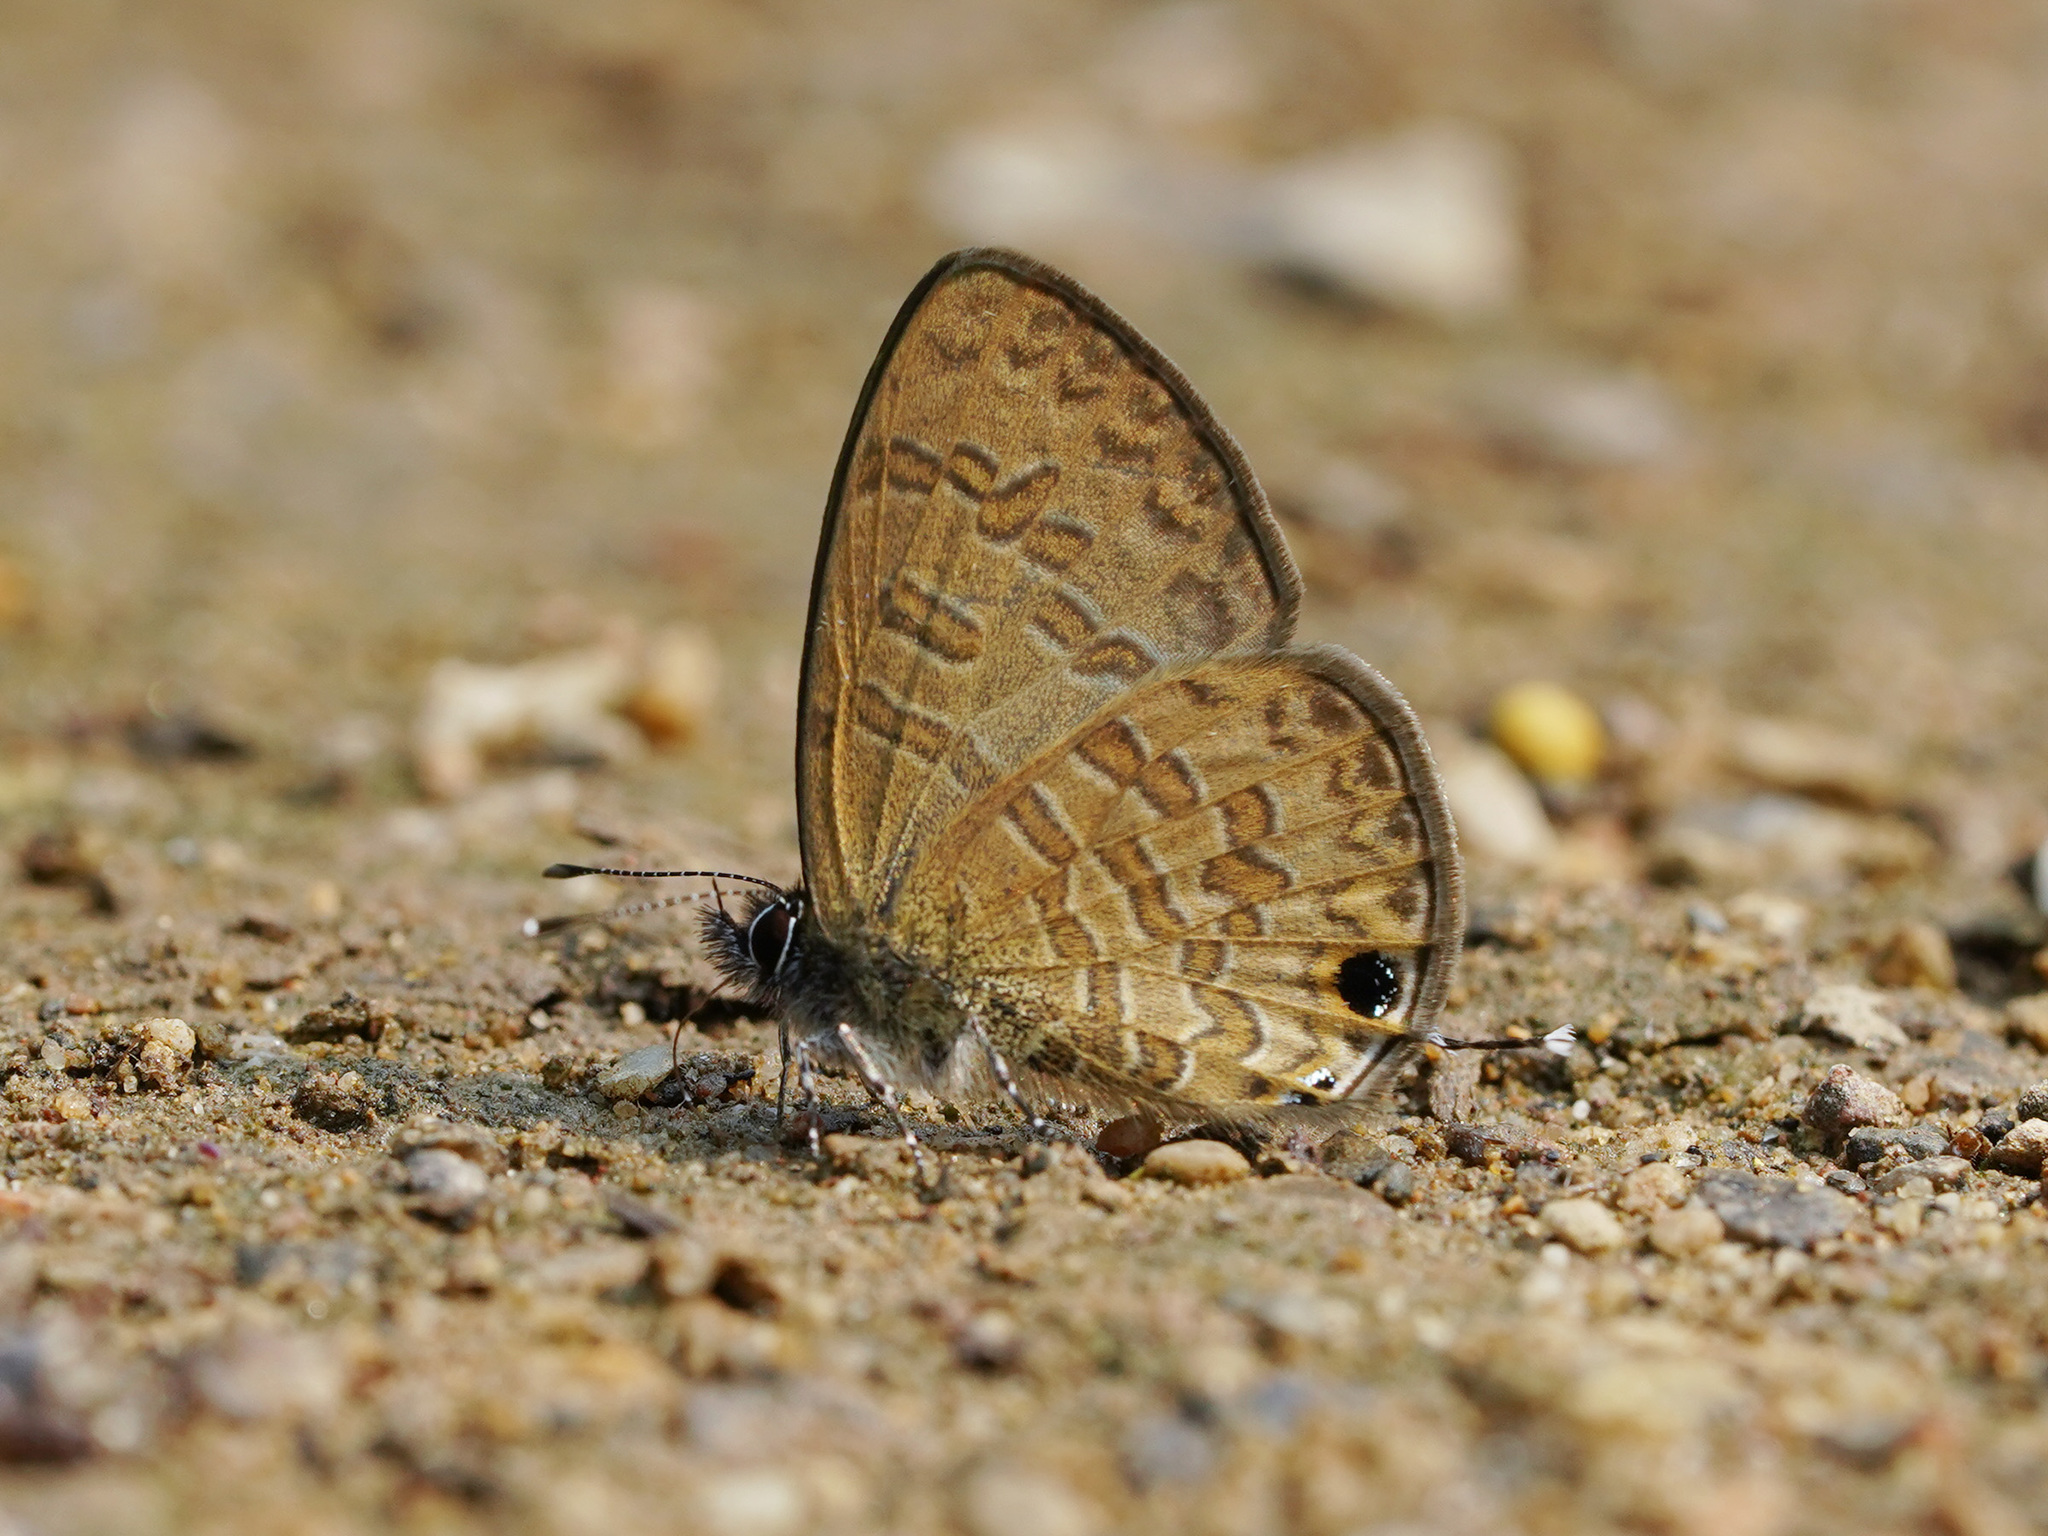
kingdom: Animalia
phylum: Arthropoda
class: Insecta
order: Lepidoptera
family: Lycaenidae
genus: Prosotas
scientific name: Prosotas nora
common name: Common line blue
